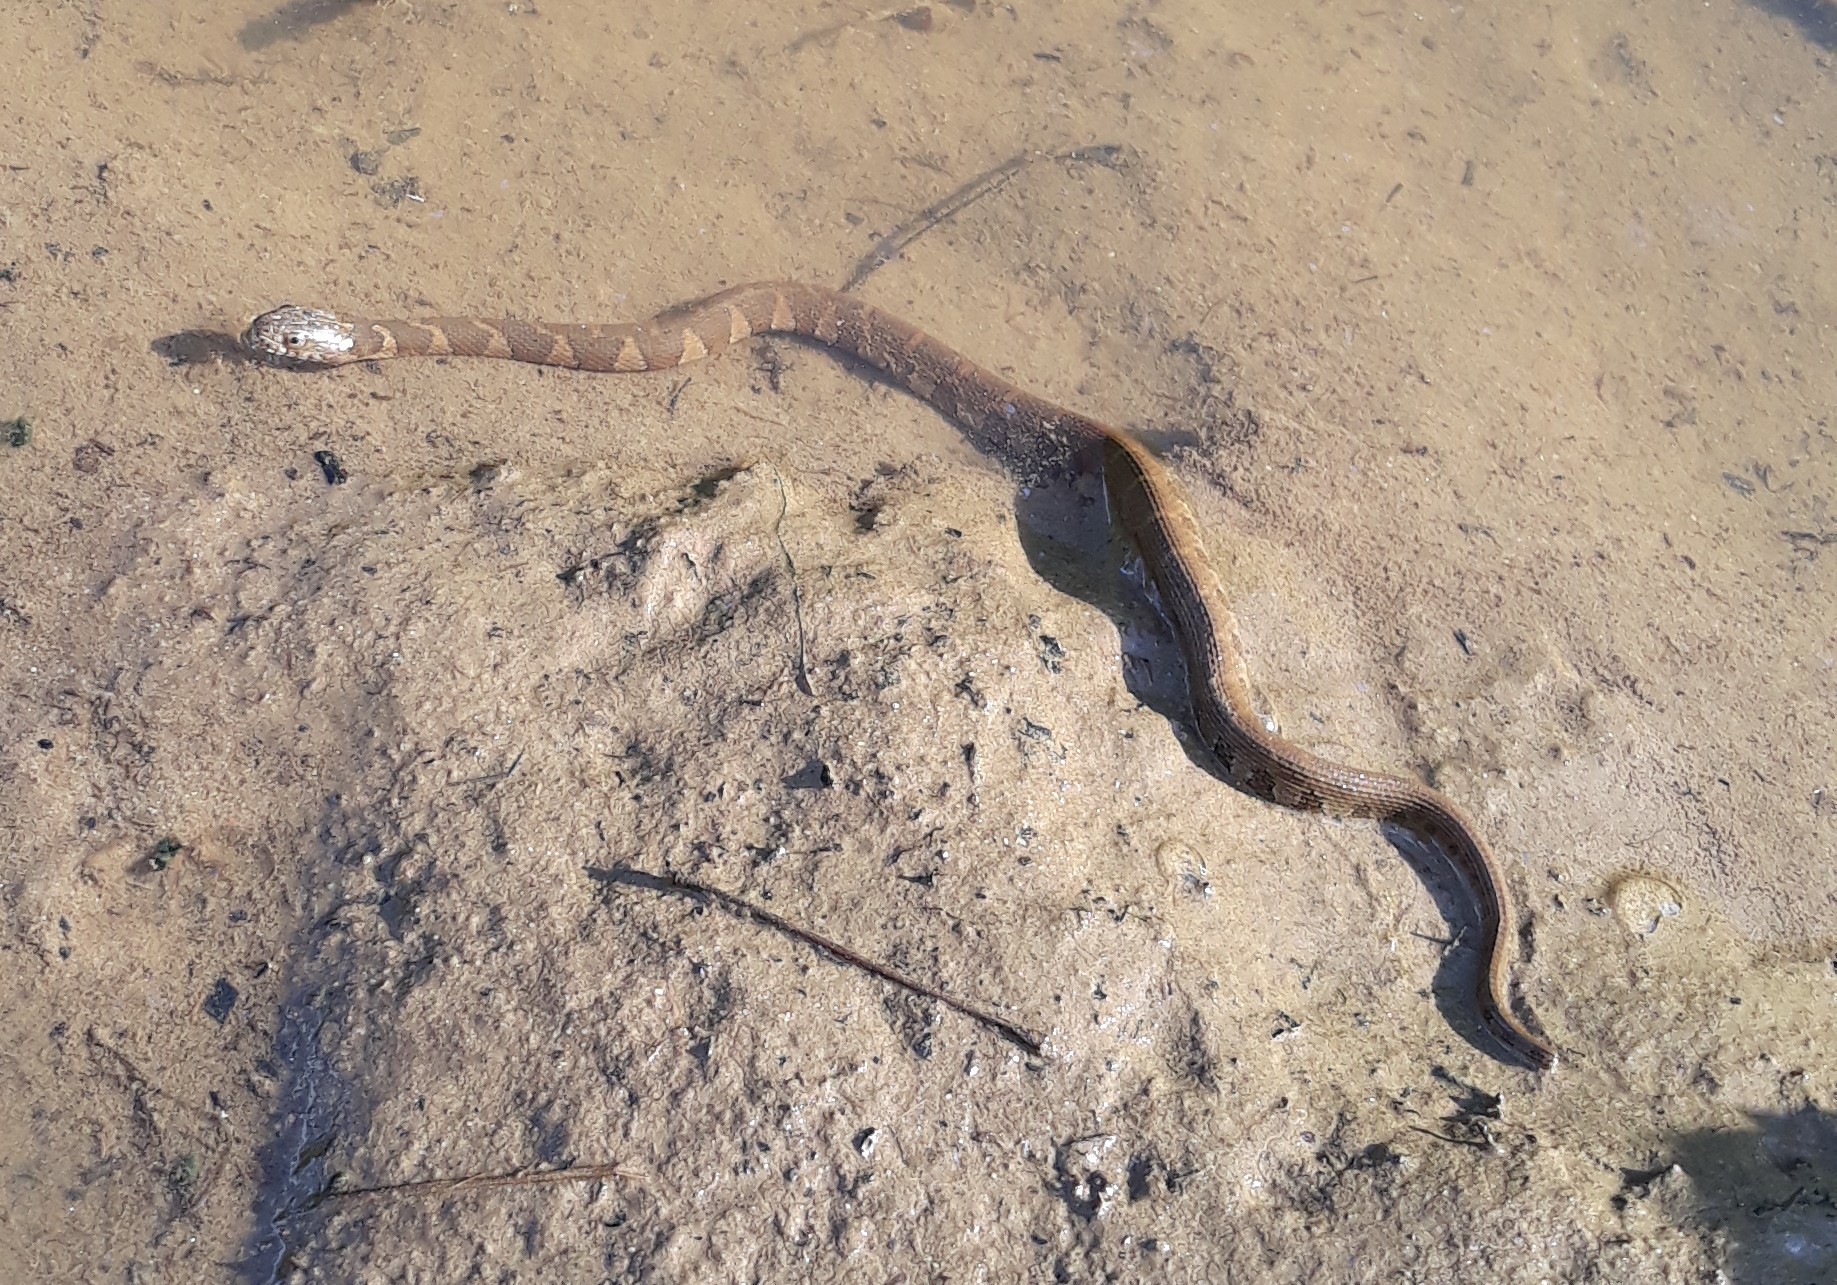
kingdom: Animalia
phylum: Chordata
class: Squamata
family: Colubridae
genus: Nerodia
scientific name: Nerodia sipedon
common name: Northern water snake
